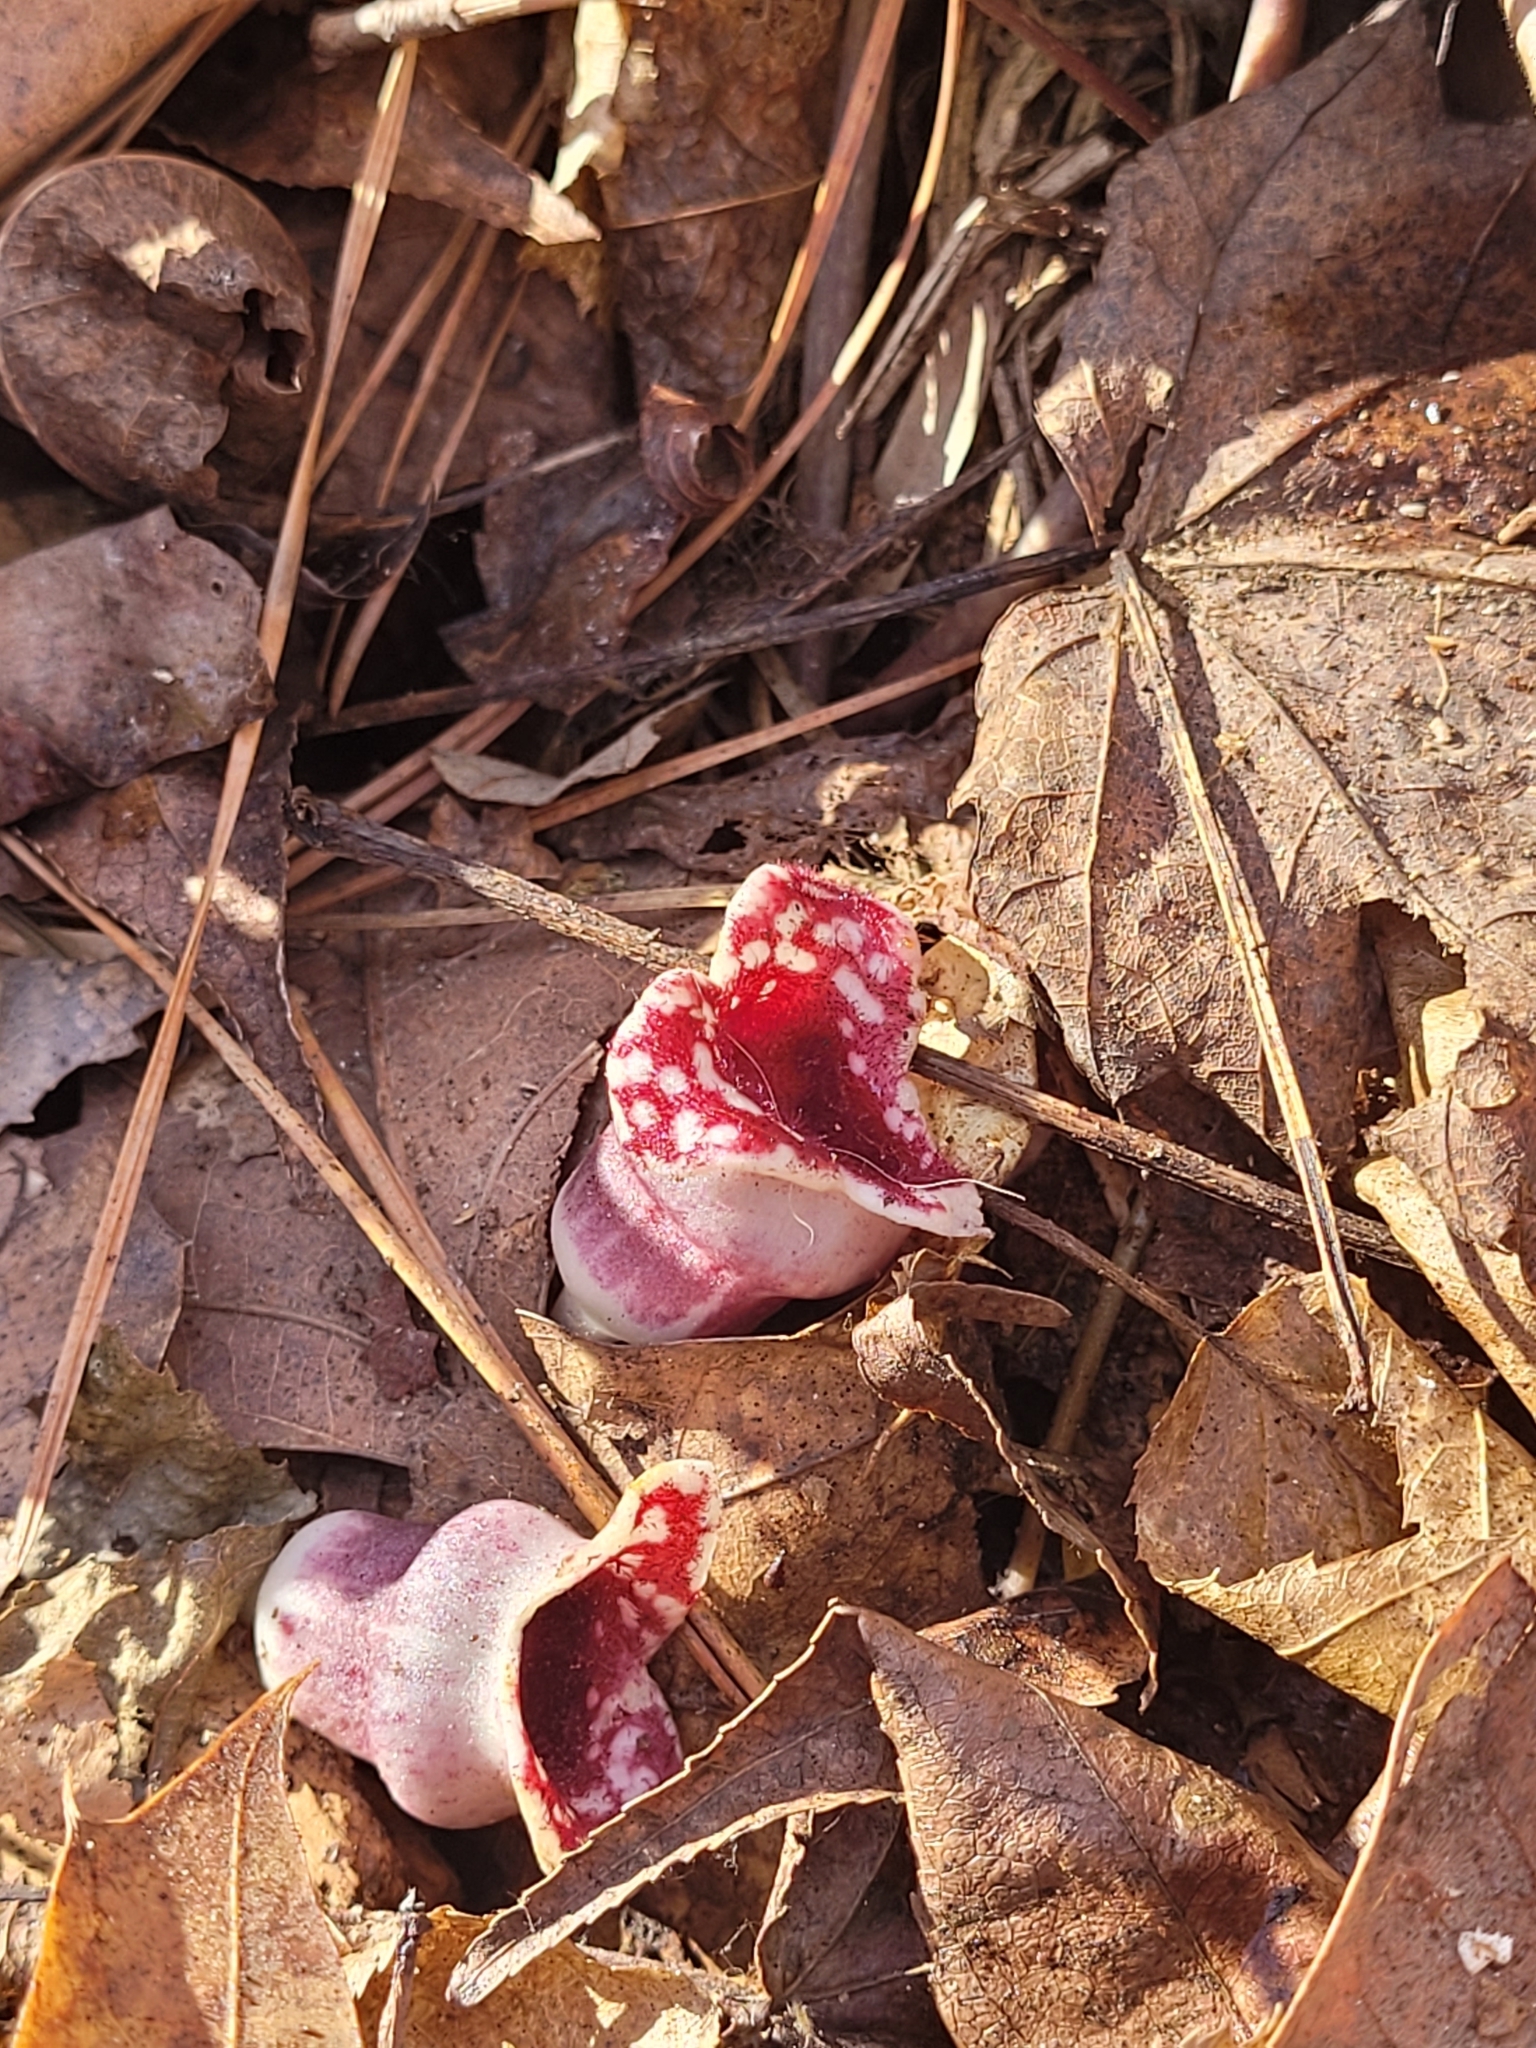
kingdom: Plantae
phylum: Tracheophyta
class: Magnoliopsida
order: Piperales
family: Aristolochiaceae
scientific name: Aristolochiaceae
